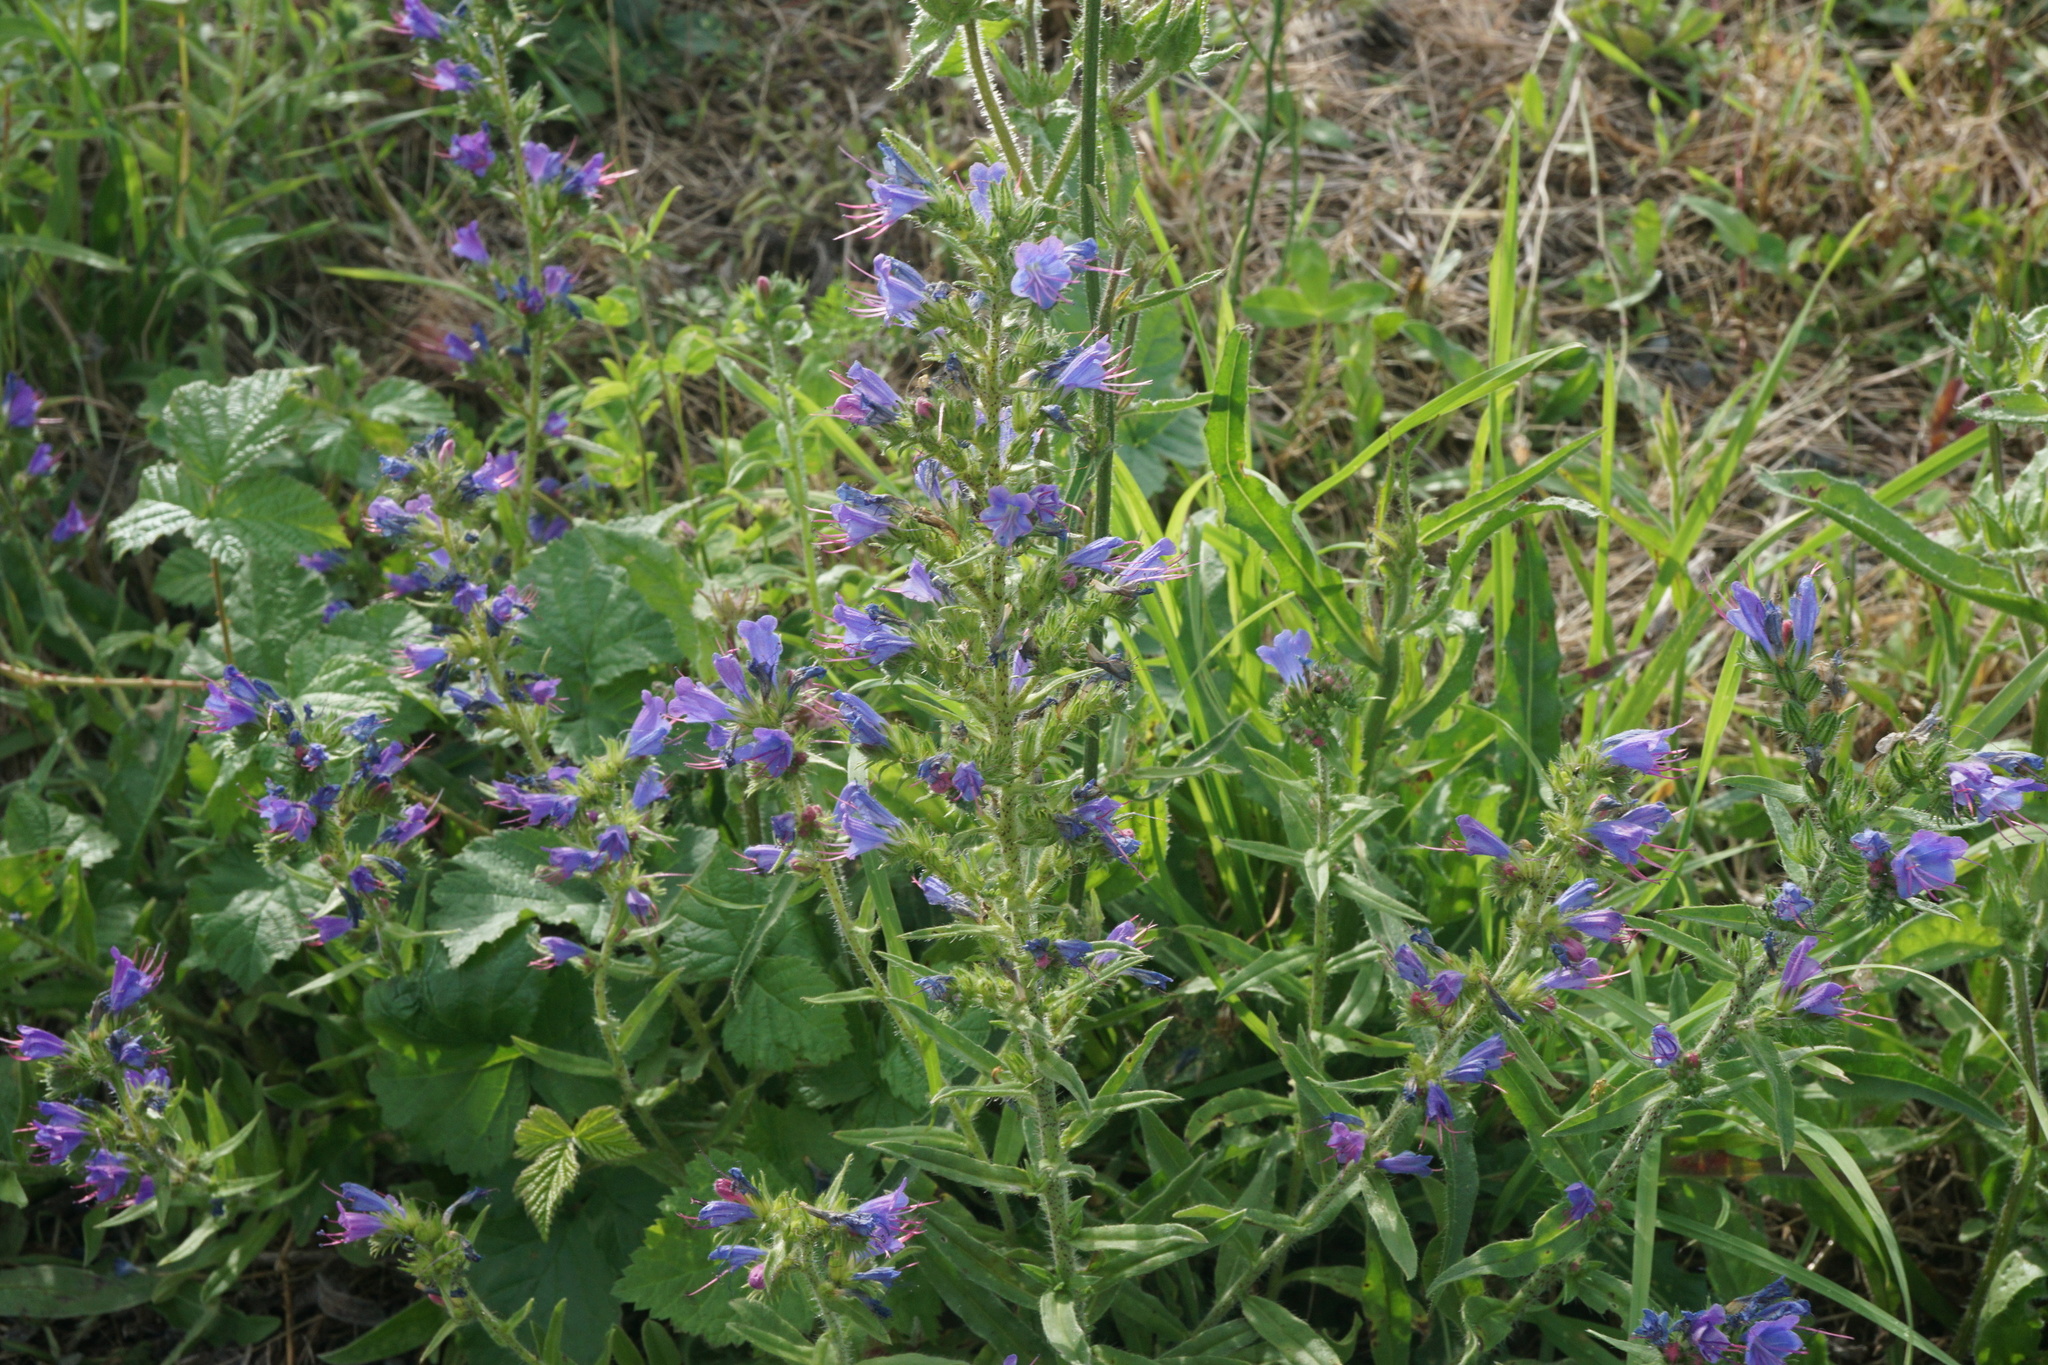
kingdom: Plantae
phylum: Tracheophyta
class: Magnoliopsida
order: Boraginales
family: Boraginaceae
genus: Echium
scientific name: Echium vulgare
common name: Common viper's bugloss
